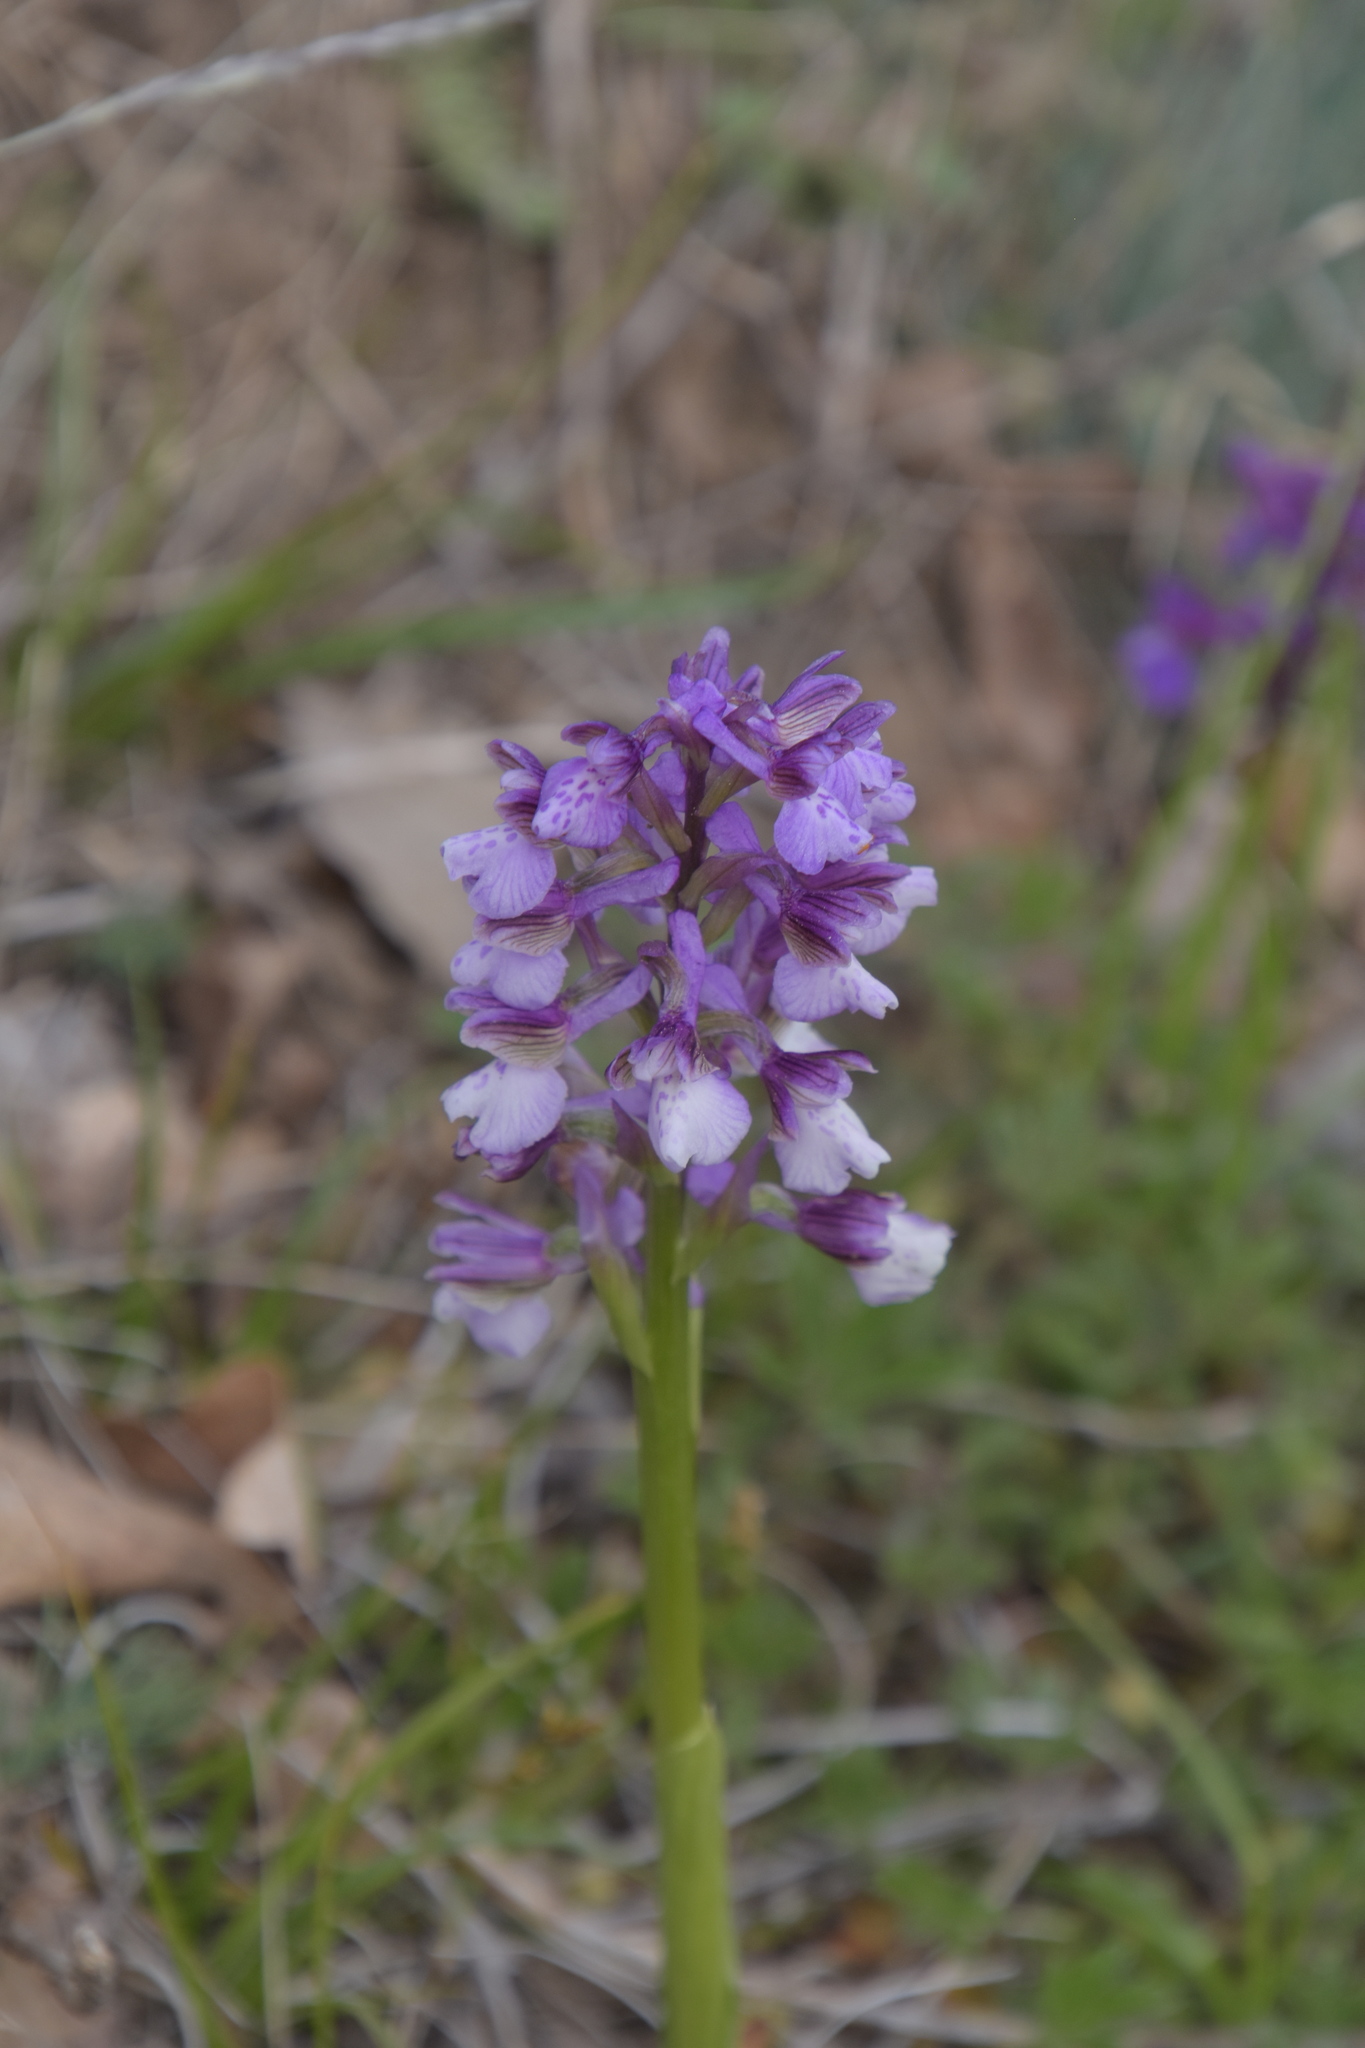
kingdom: Plantae
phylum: Tracheophyta
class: Liliopsida
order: Asparagales
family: Orchidaceae
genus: Anacamptis
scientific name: Anacamptis morio
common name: Green-winged orchid
